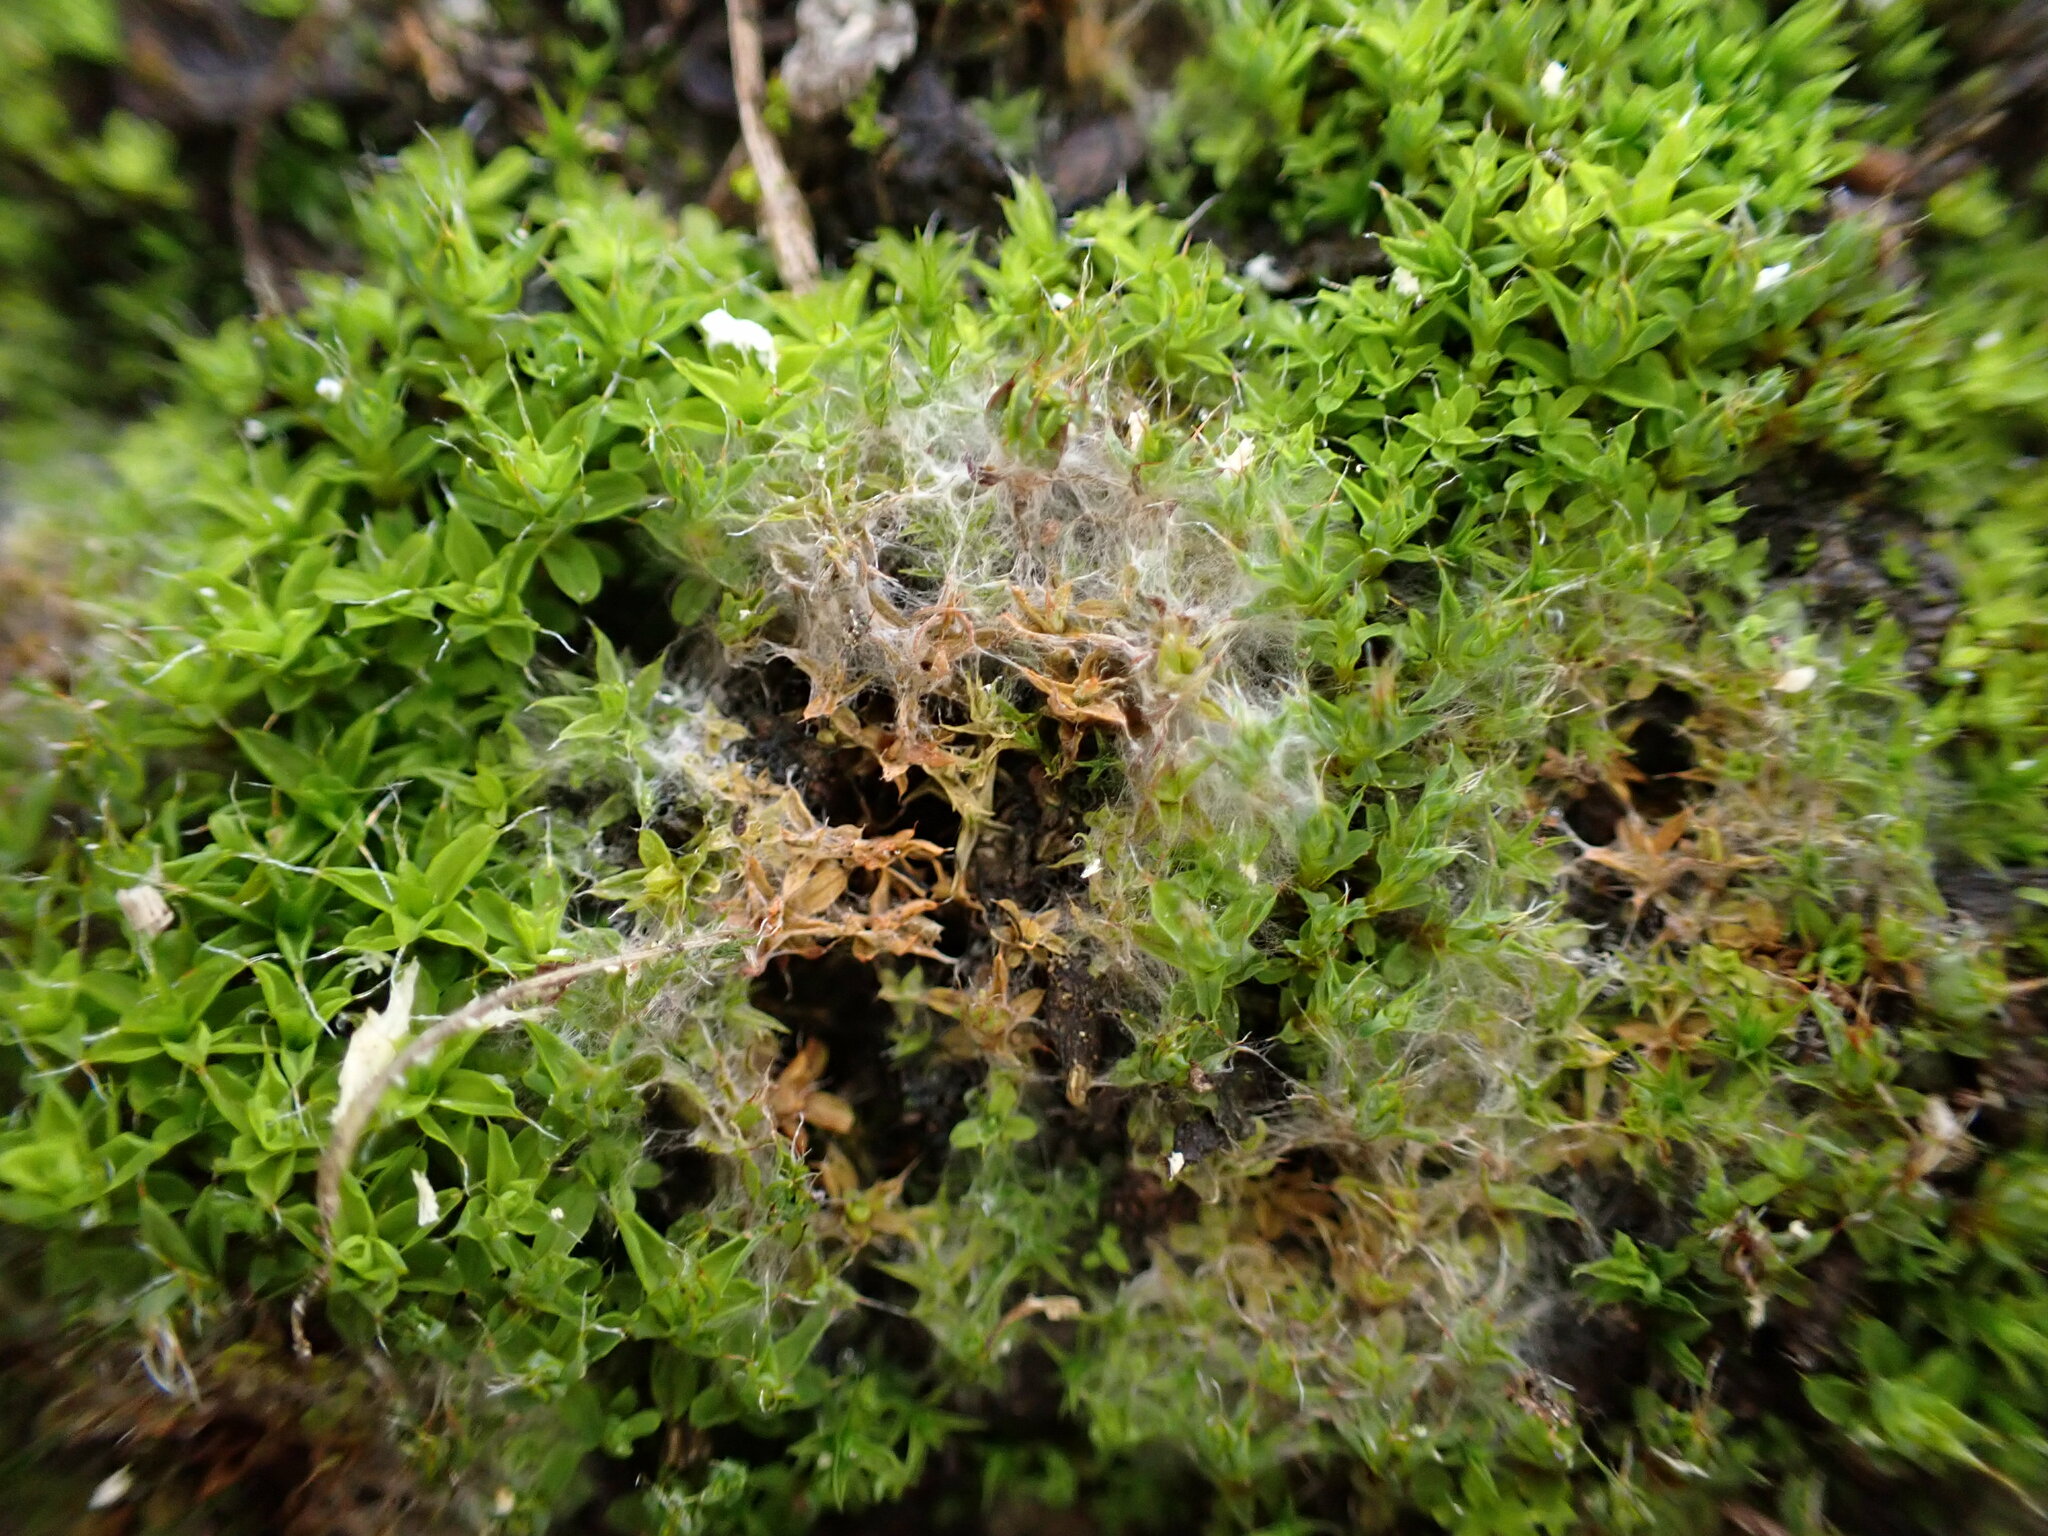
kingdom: Fungi
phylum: Basidiomycota
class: Agaricomycetes
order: Atheliales
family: Atheliaceae
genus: Athelia
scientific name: Athelia arachnoidea
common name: Candelabra duster
